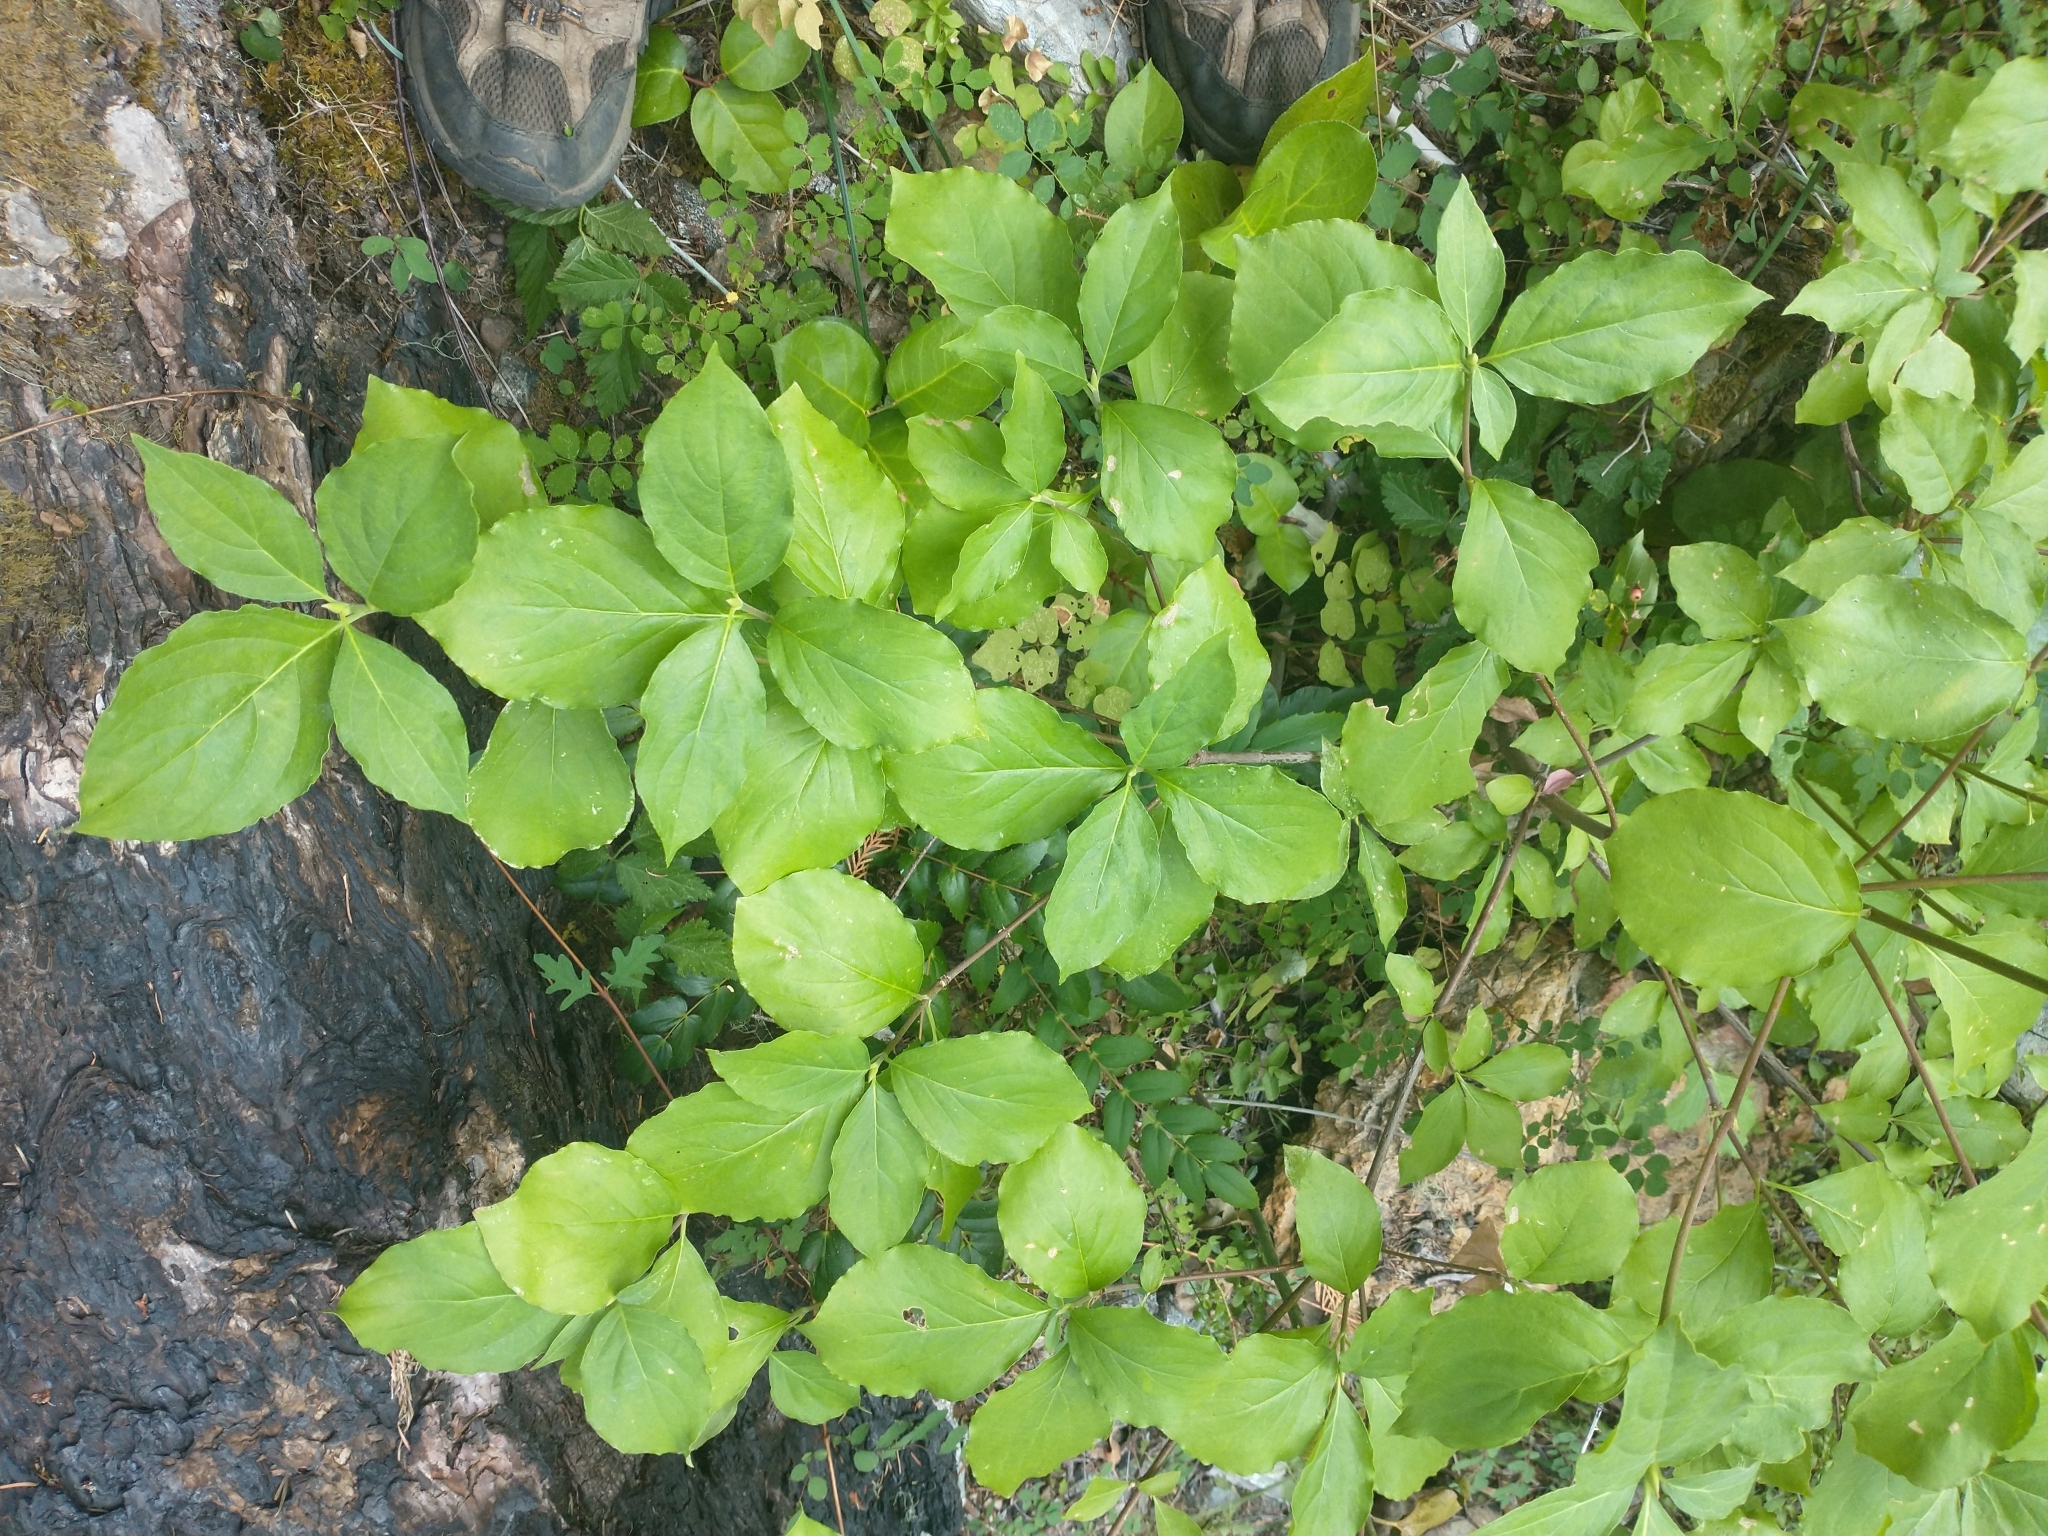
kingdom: Plantae
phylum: Tracheophyta
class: Magnoliopsida
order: Cornales
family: Cornaceae
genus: Cornus
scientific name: Cornus nuttallii
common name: Pacific dogwood
